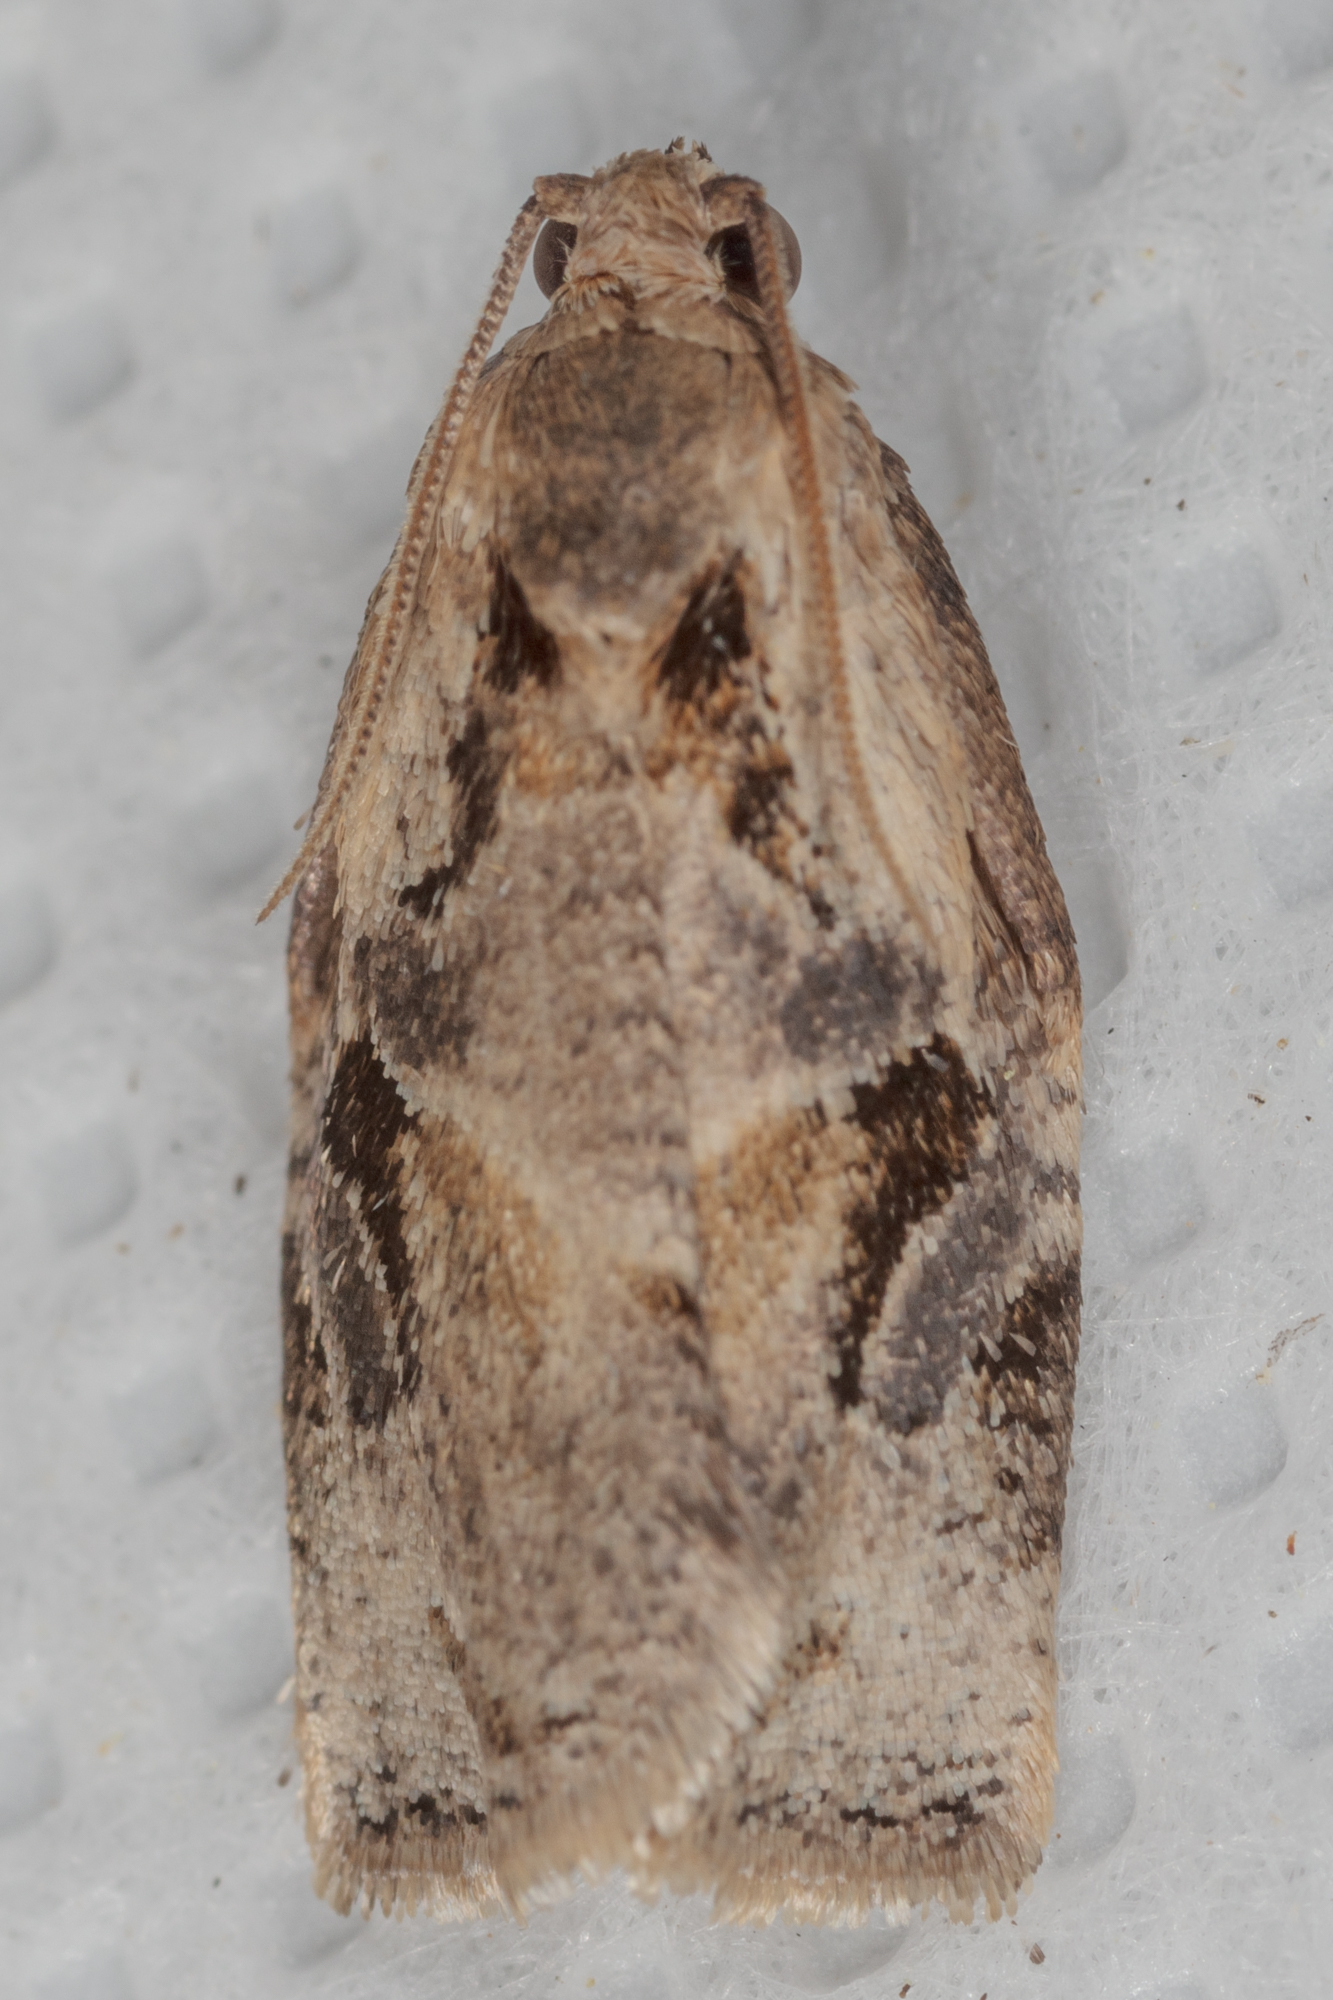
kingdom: Animalia
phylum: Arthropoda
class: Insecta
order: Lepidoptera
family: Tortricidae
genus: Archips
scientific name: Archips grisea
